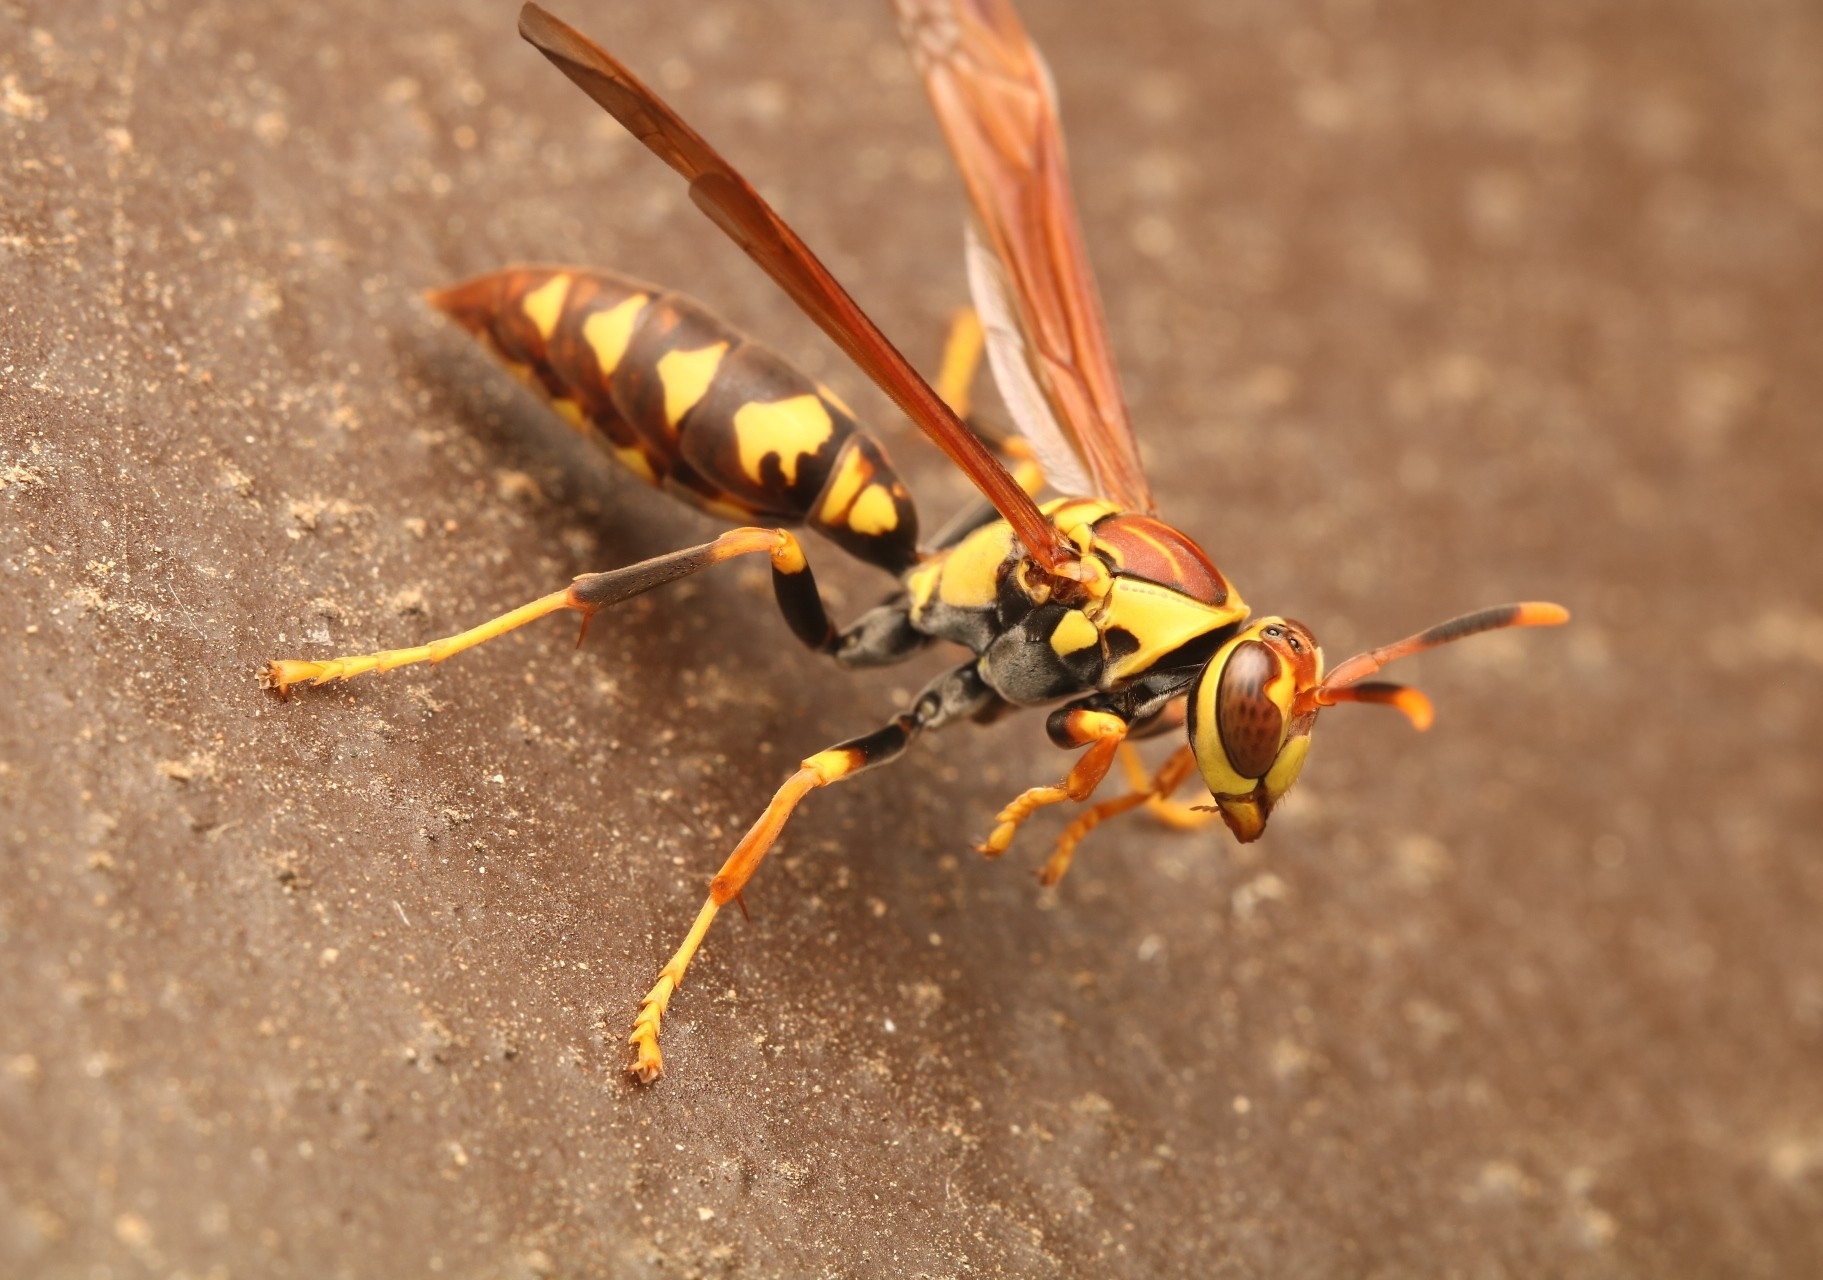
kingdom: Animalia
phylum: Arthropoda
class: Insecta
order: Hymenoptera
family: Eumenidae
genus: Polistes
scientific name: Polistes myersi
